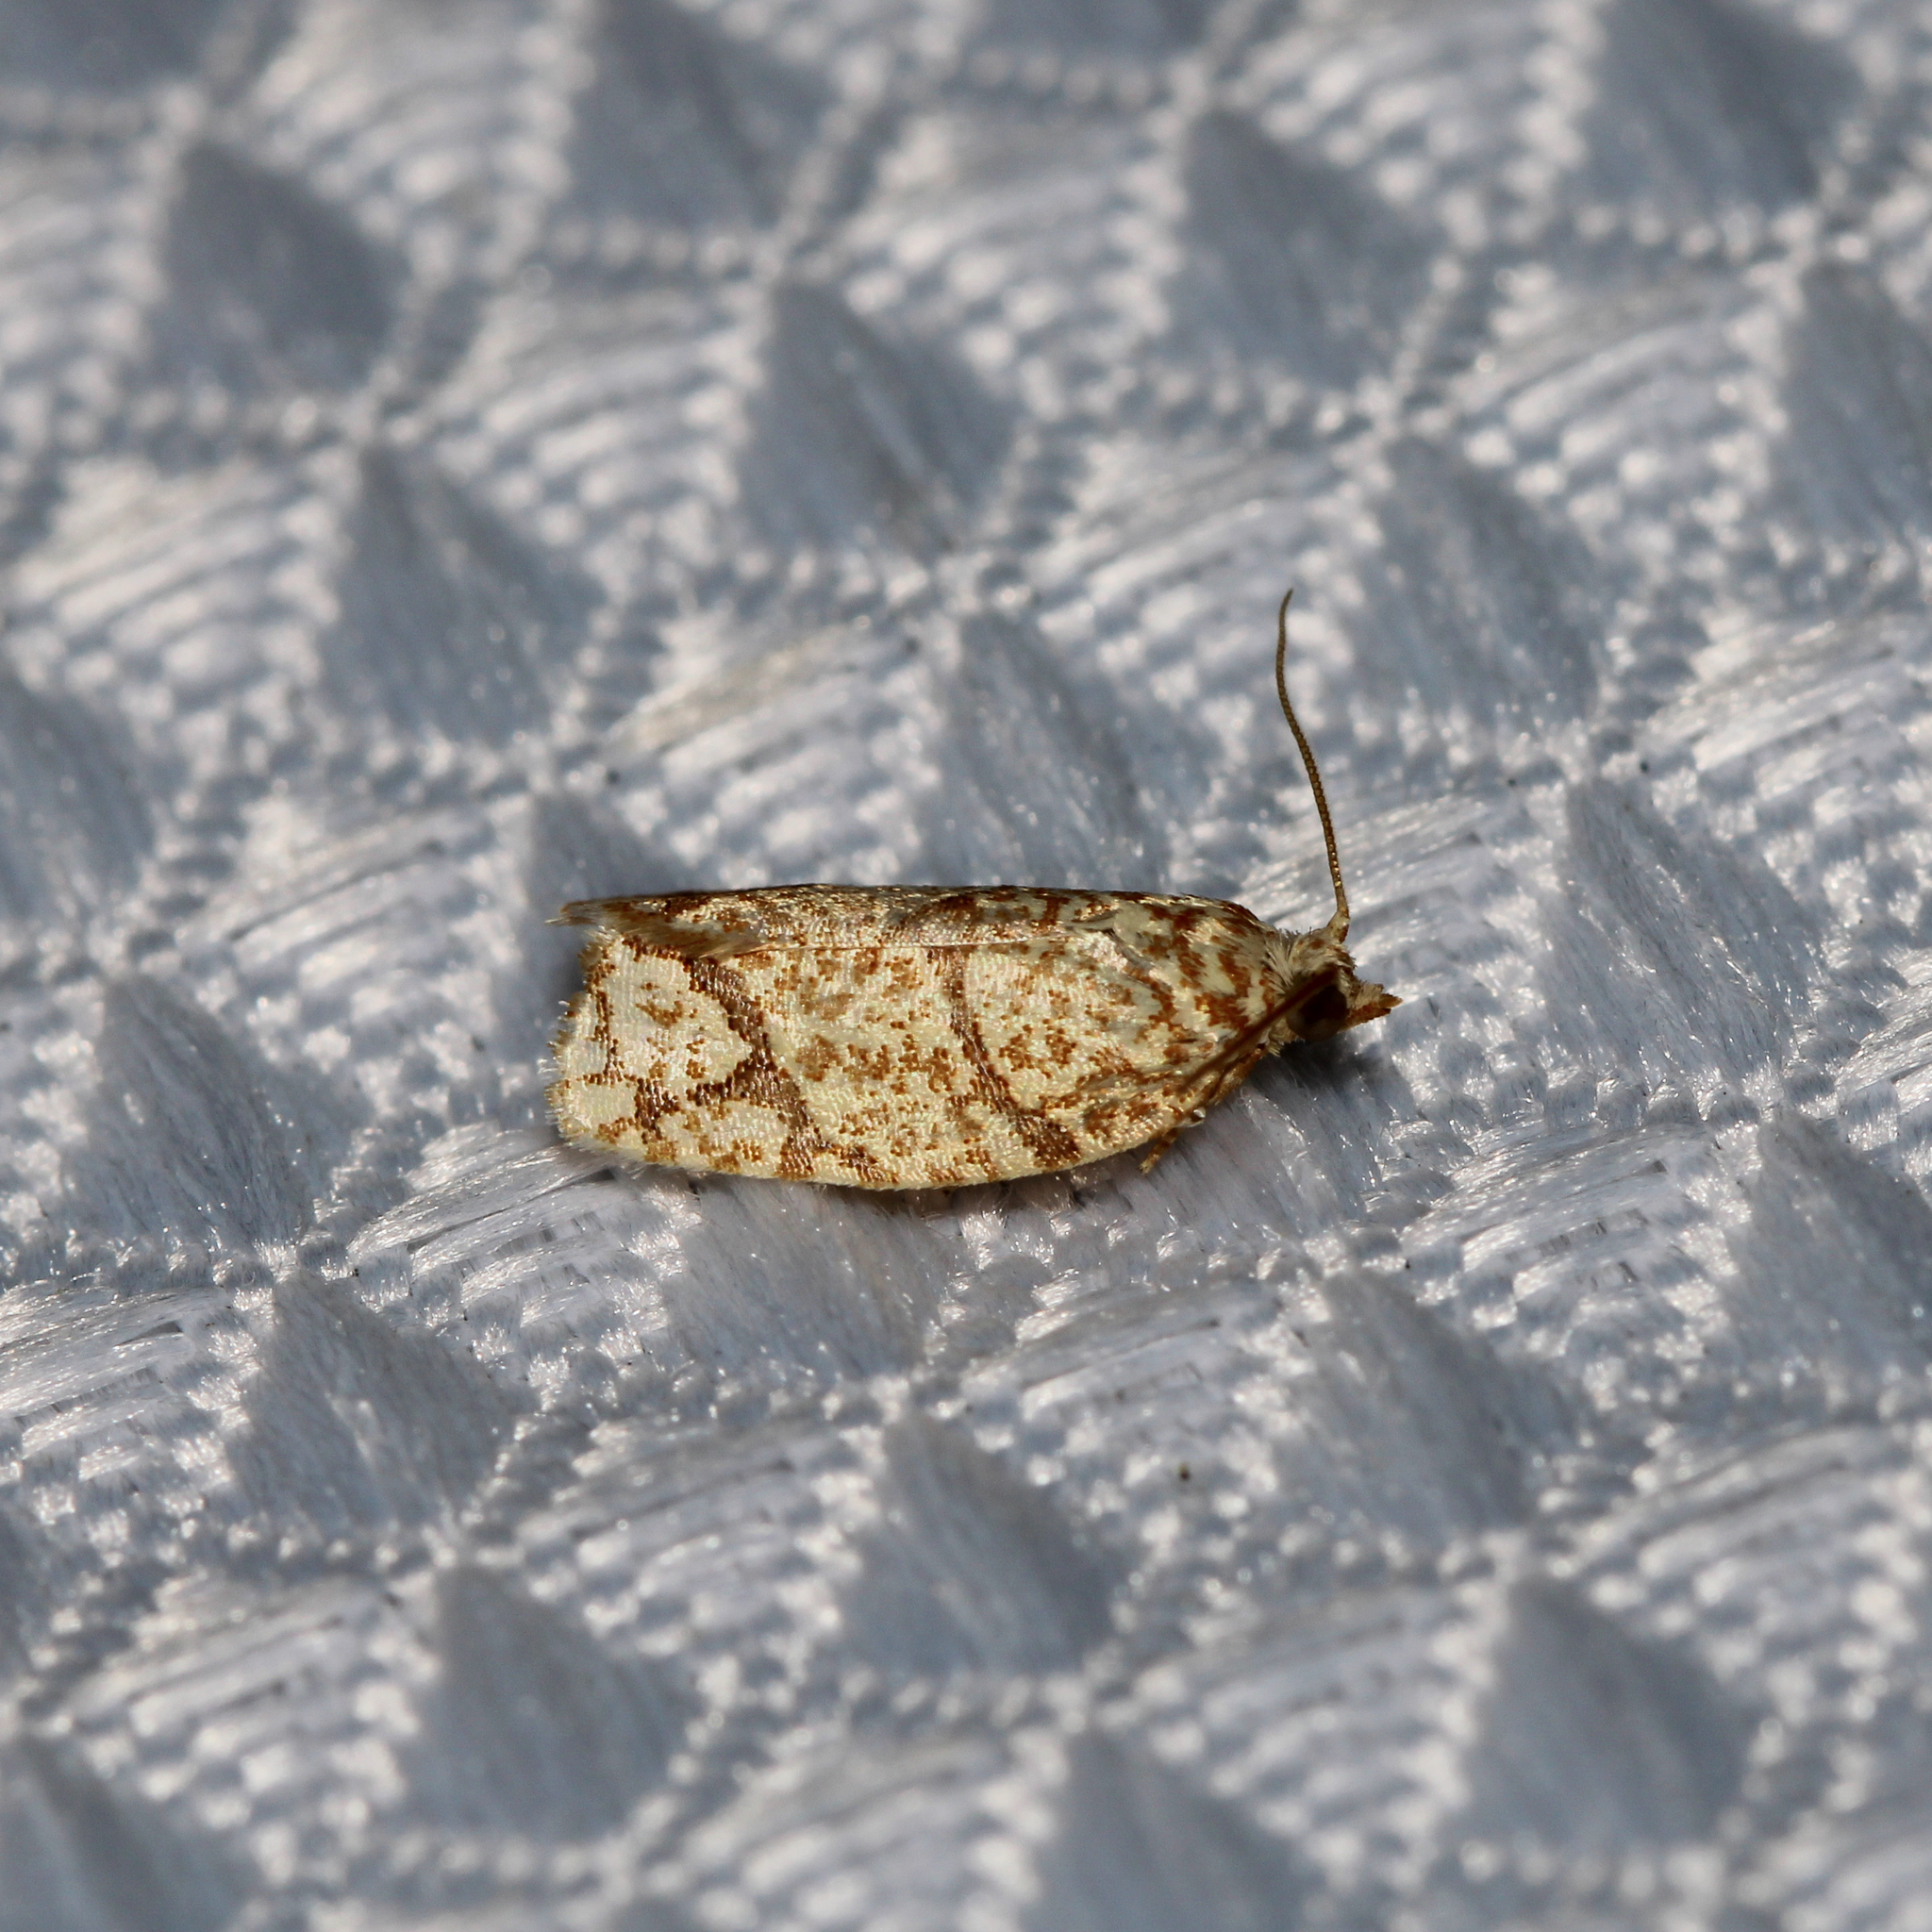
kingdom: Animalia
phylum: Arthropoda
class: Insecta
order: Lepidoptera
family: Tortricidae
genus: Argyrotaenia
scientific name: Argyrotaenia quercifoliana
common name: Yellow-winged oak leafroller moth
